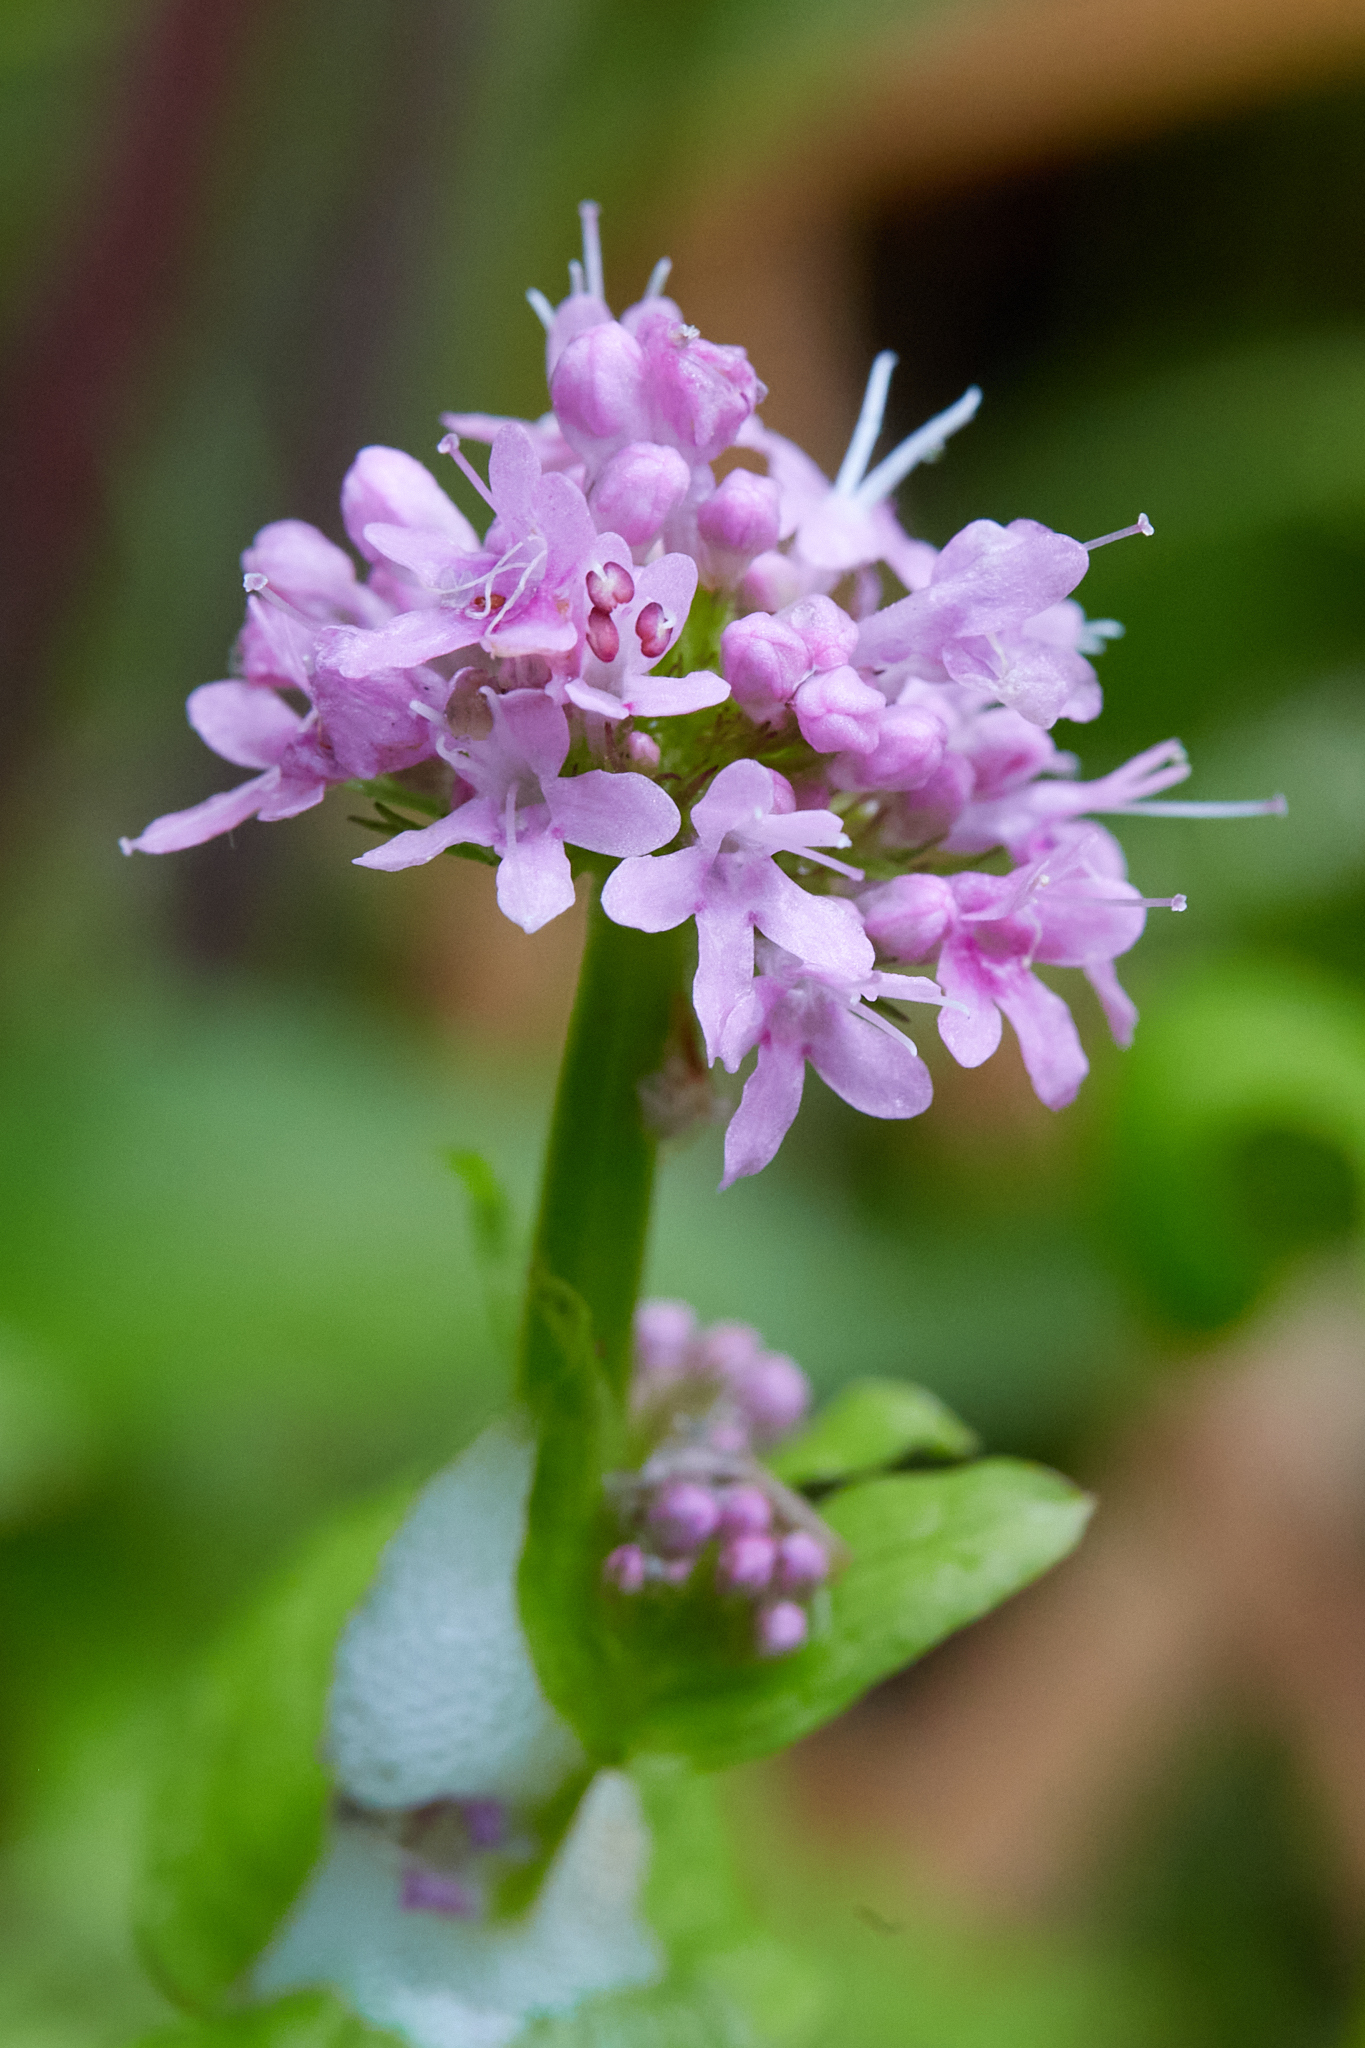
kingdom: Plantae
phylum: Tracheophyta
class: Magnoliopsida
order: Dipsacales
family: Caprifoliaceae
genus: Plectritis
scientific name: Plectritis congesta
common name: Pink plectritis
